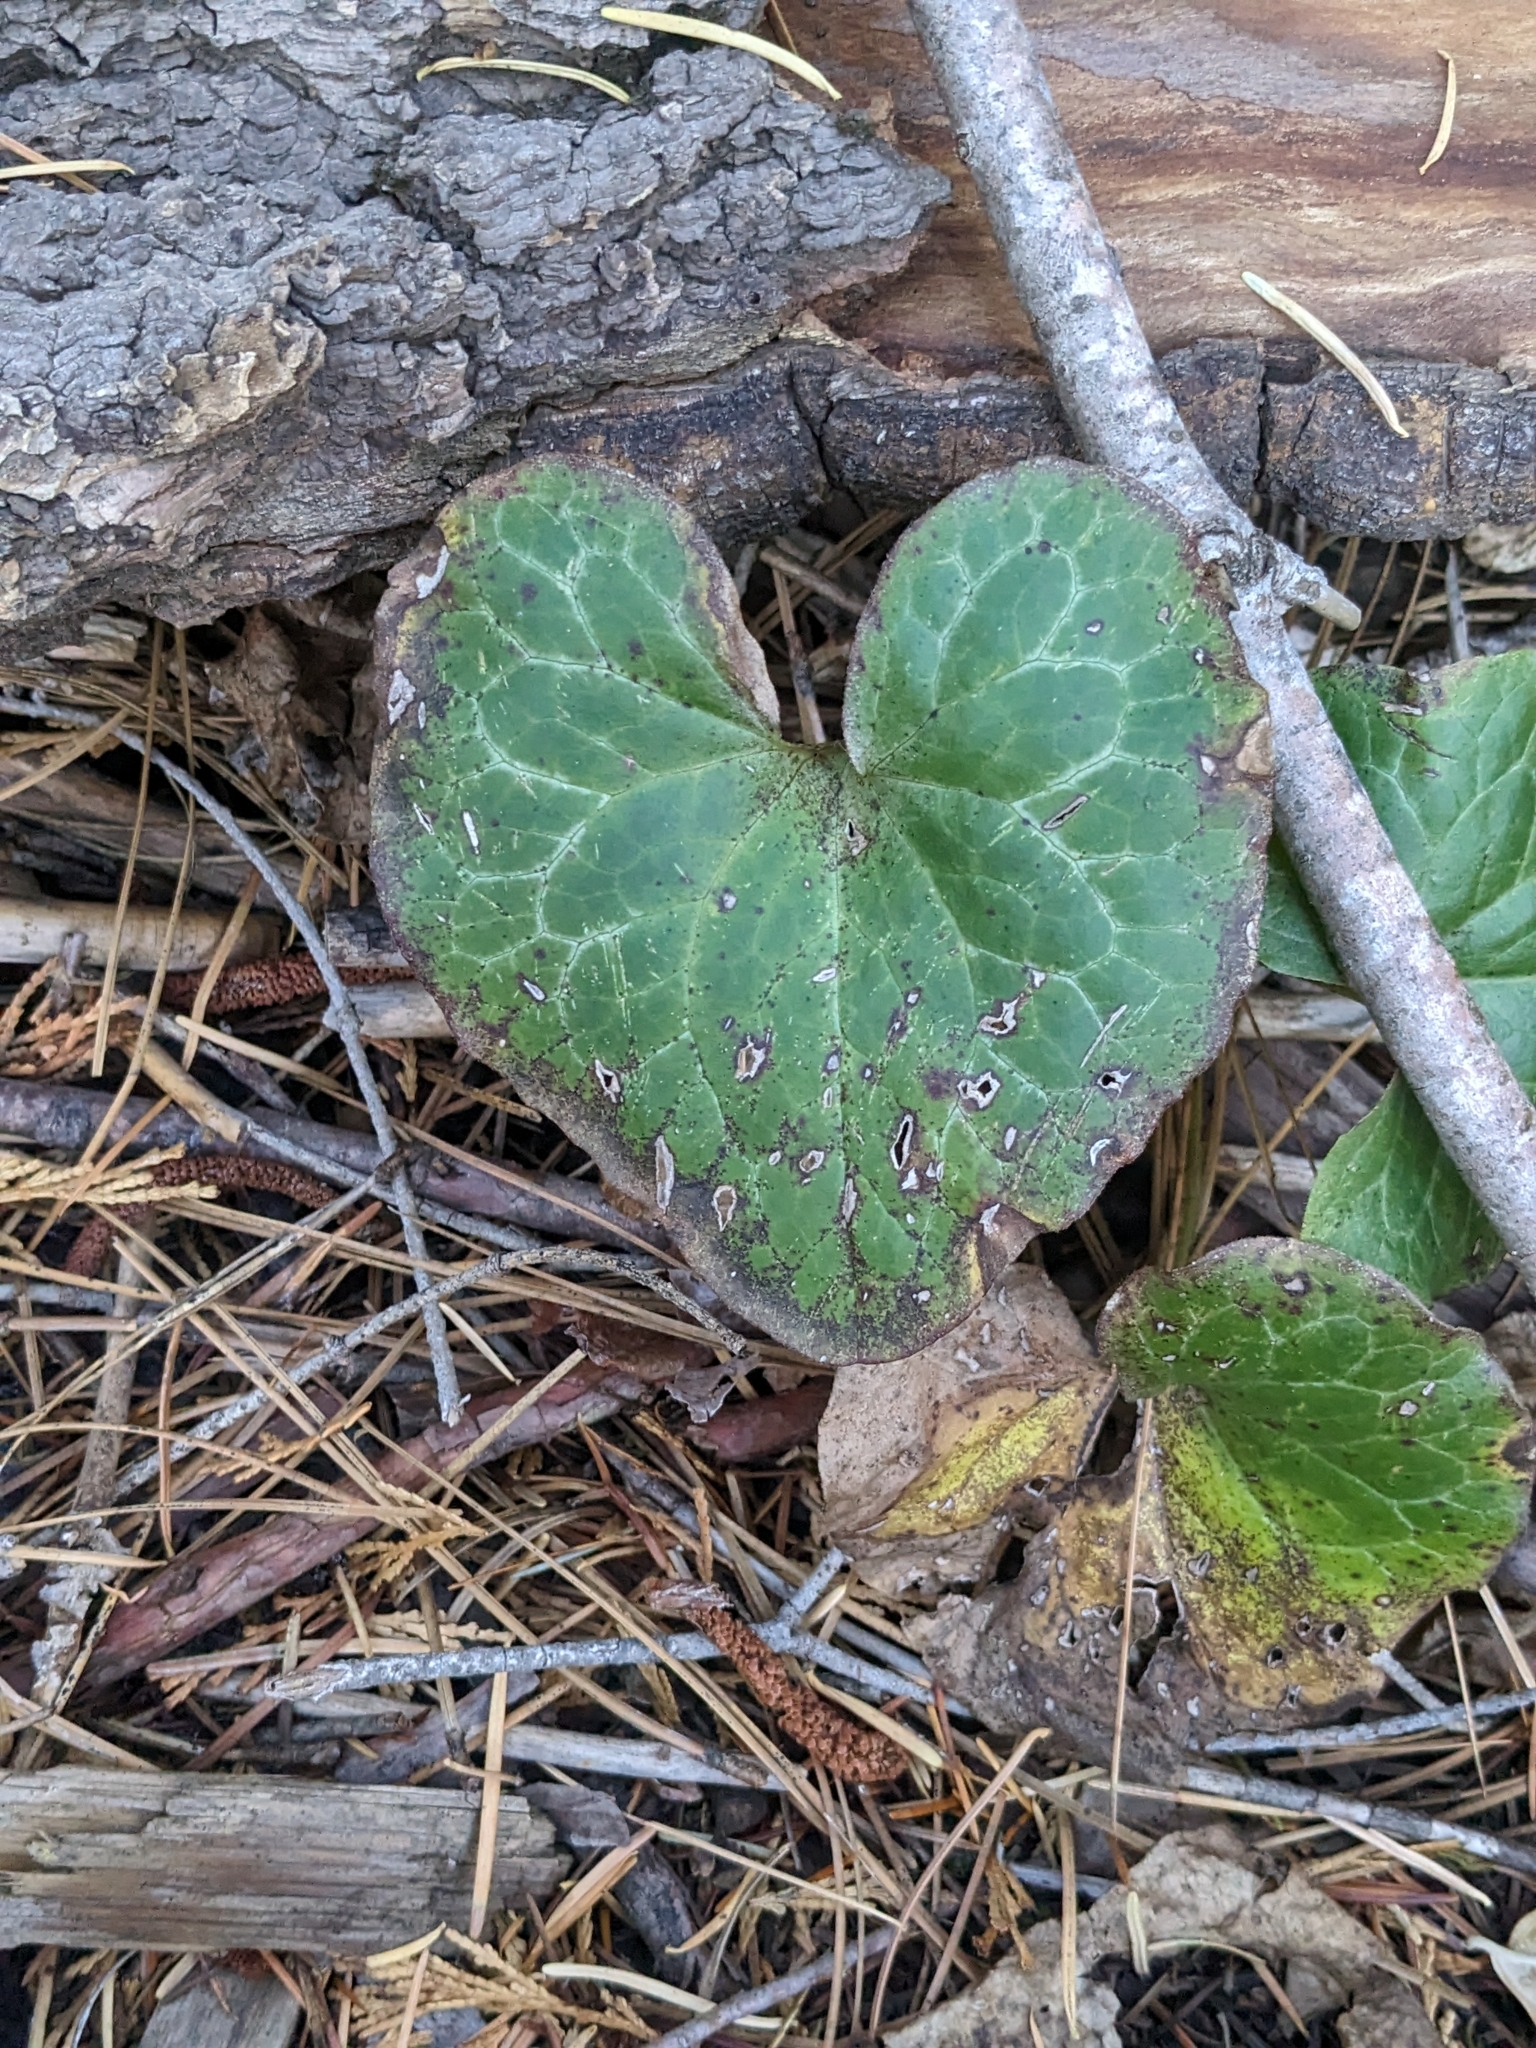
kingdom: Plantae
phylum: Tracheophyta
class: Magnoliopsida
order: Piperales
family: Aristolochiaceae
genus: Asarum
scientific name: Asarum hartwegii
